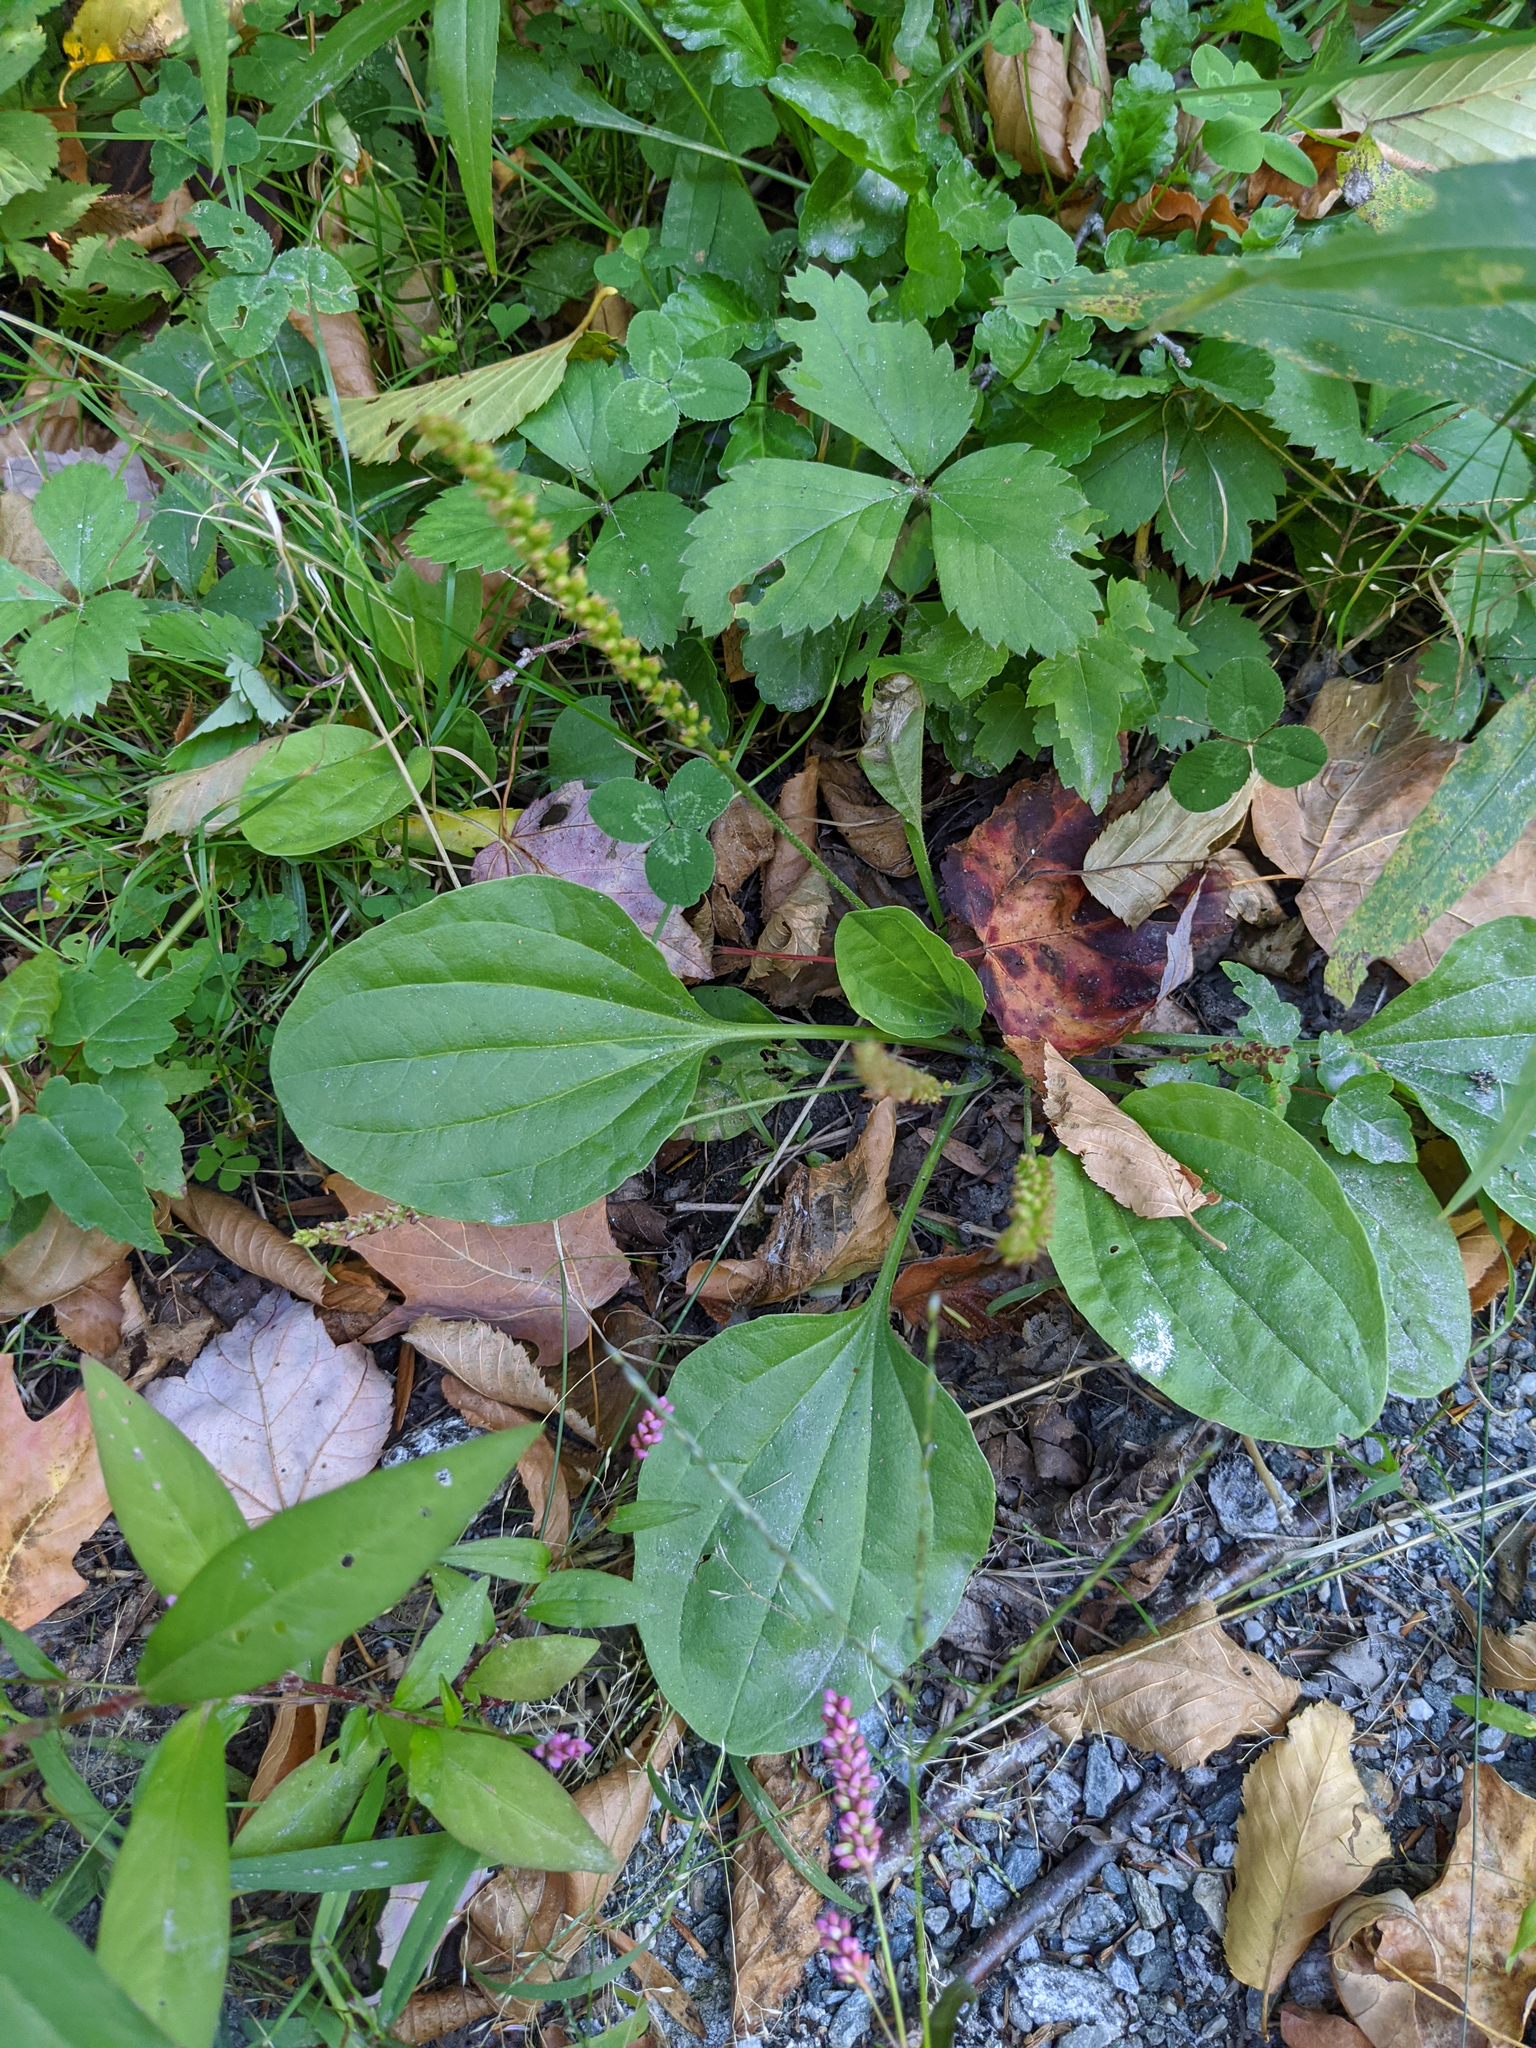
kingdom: Plantae
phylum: Tracheophyta
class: Magnoliopsida
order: Lamiales
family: Plantaginaceae
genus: Plantago
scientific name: Plantago major
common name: Common plantain
